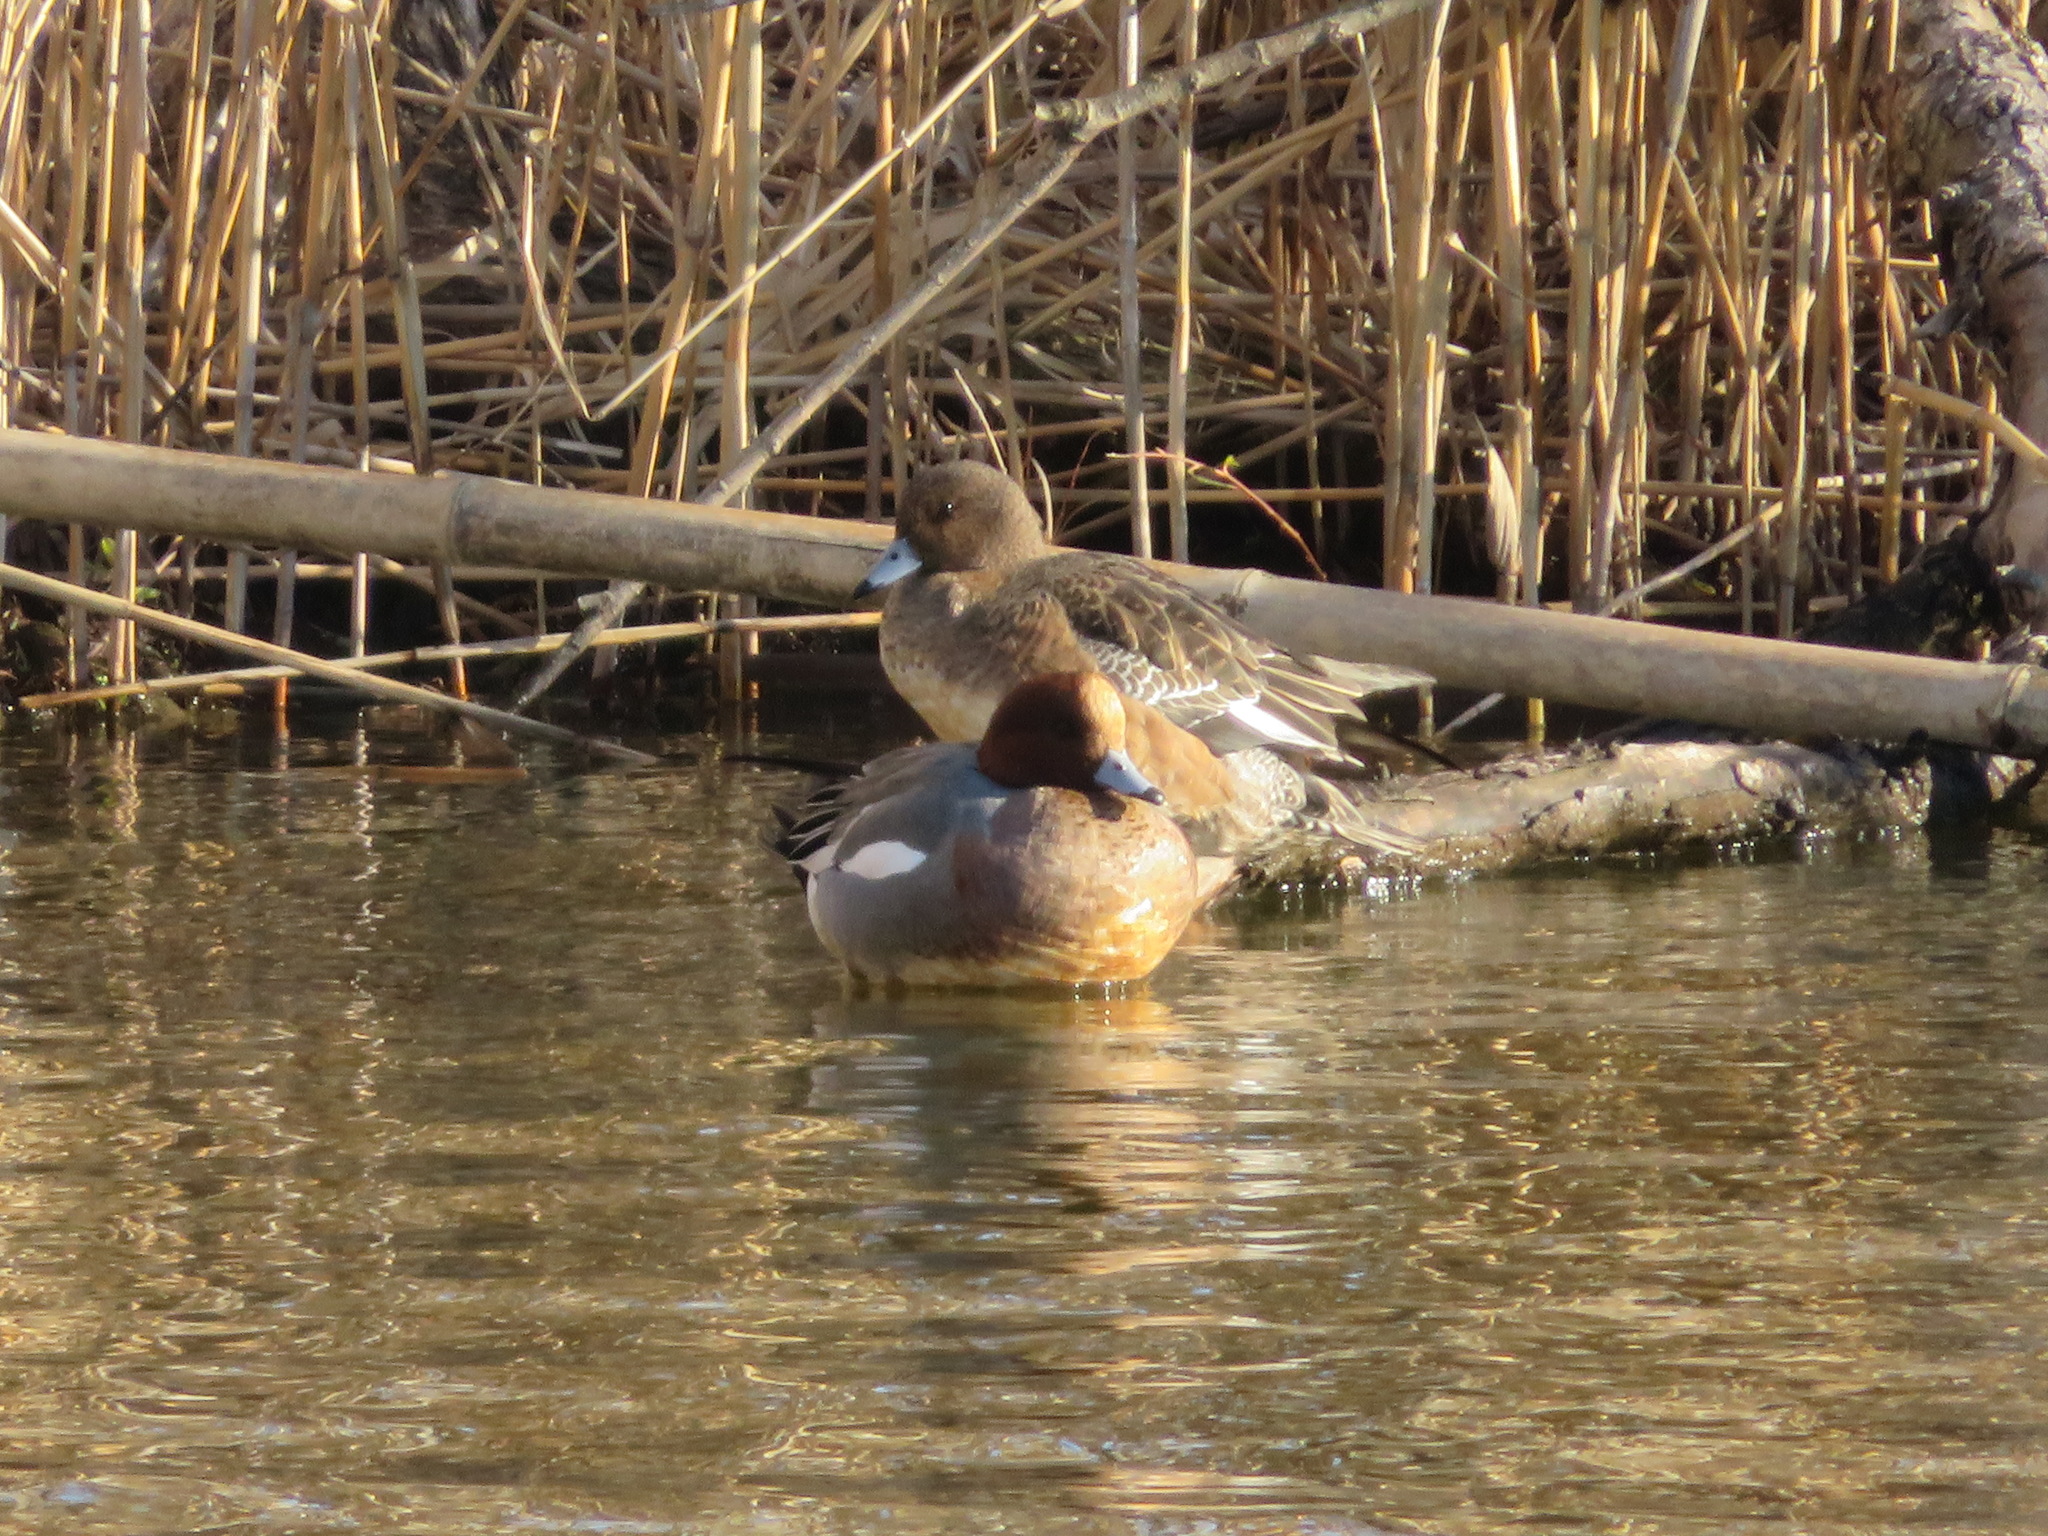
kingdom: Animalia
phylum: Chordata
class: Aves
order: Anseriformes
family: Anatidae
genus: Mareca
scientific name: Mareca penelope
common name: Eurasian wigeon
